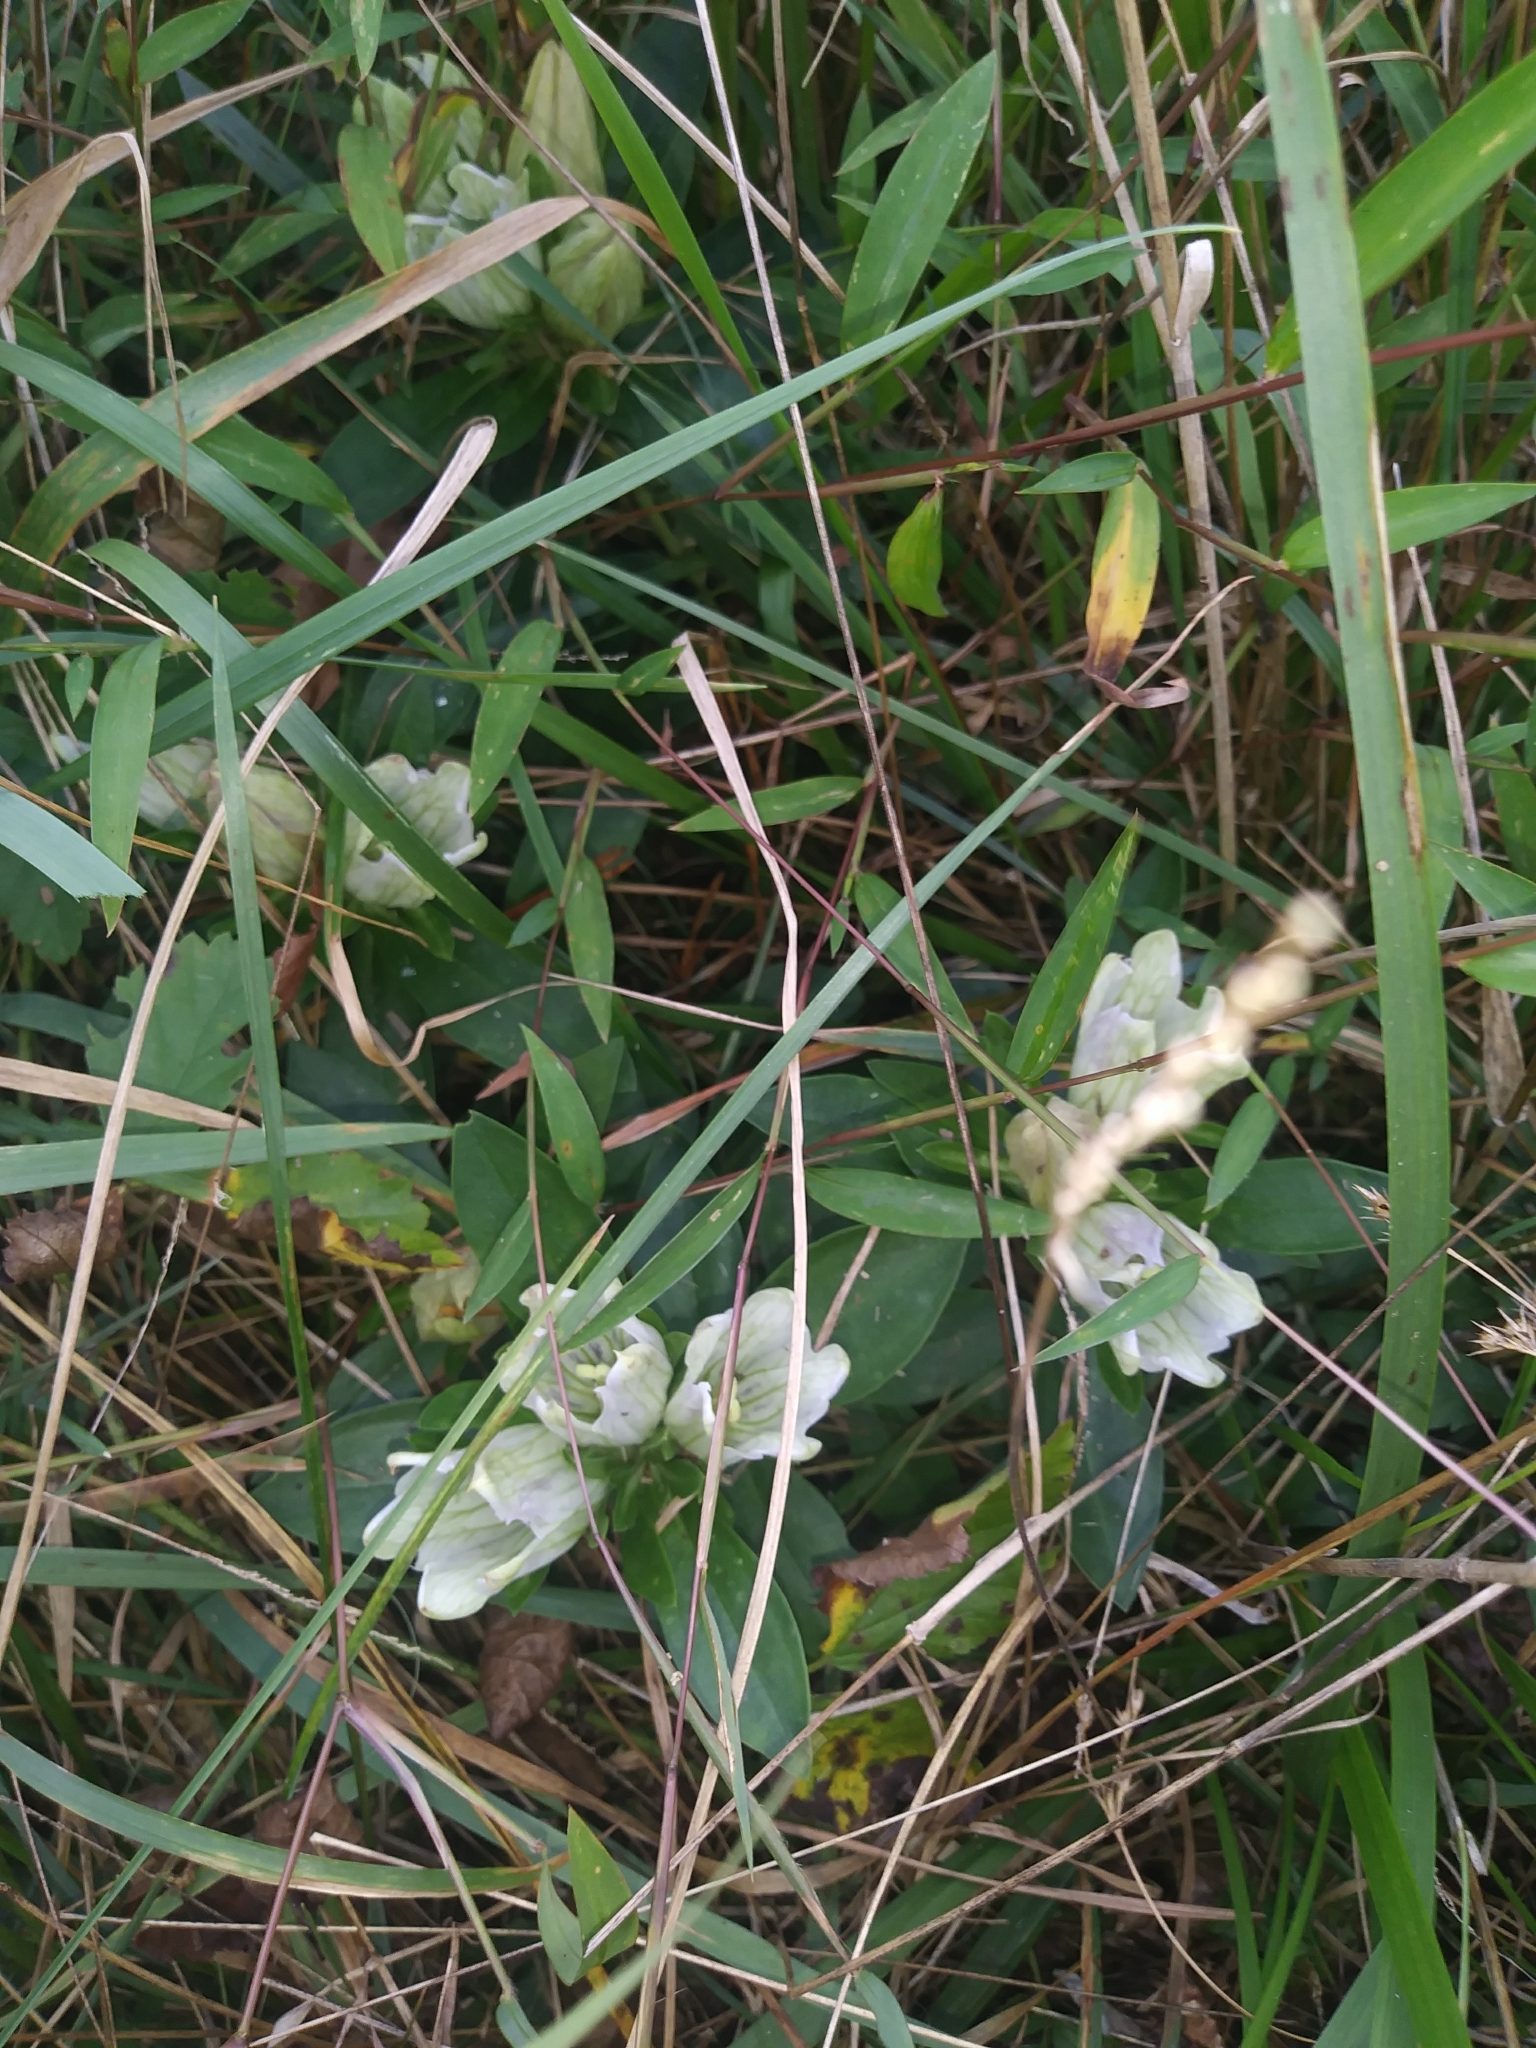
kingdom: Plantae
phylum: Tracheophyta
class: Magnoliopsida
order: Gentianales
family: Gentianaceae
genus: Gentiana
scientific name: Gentiana villosa
